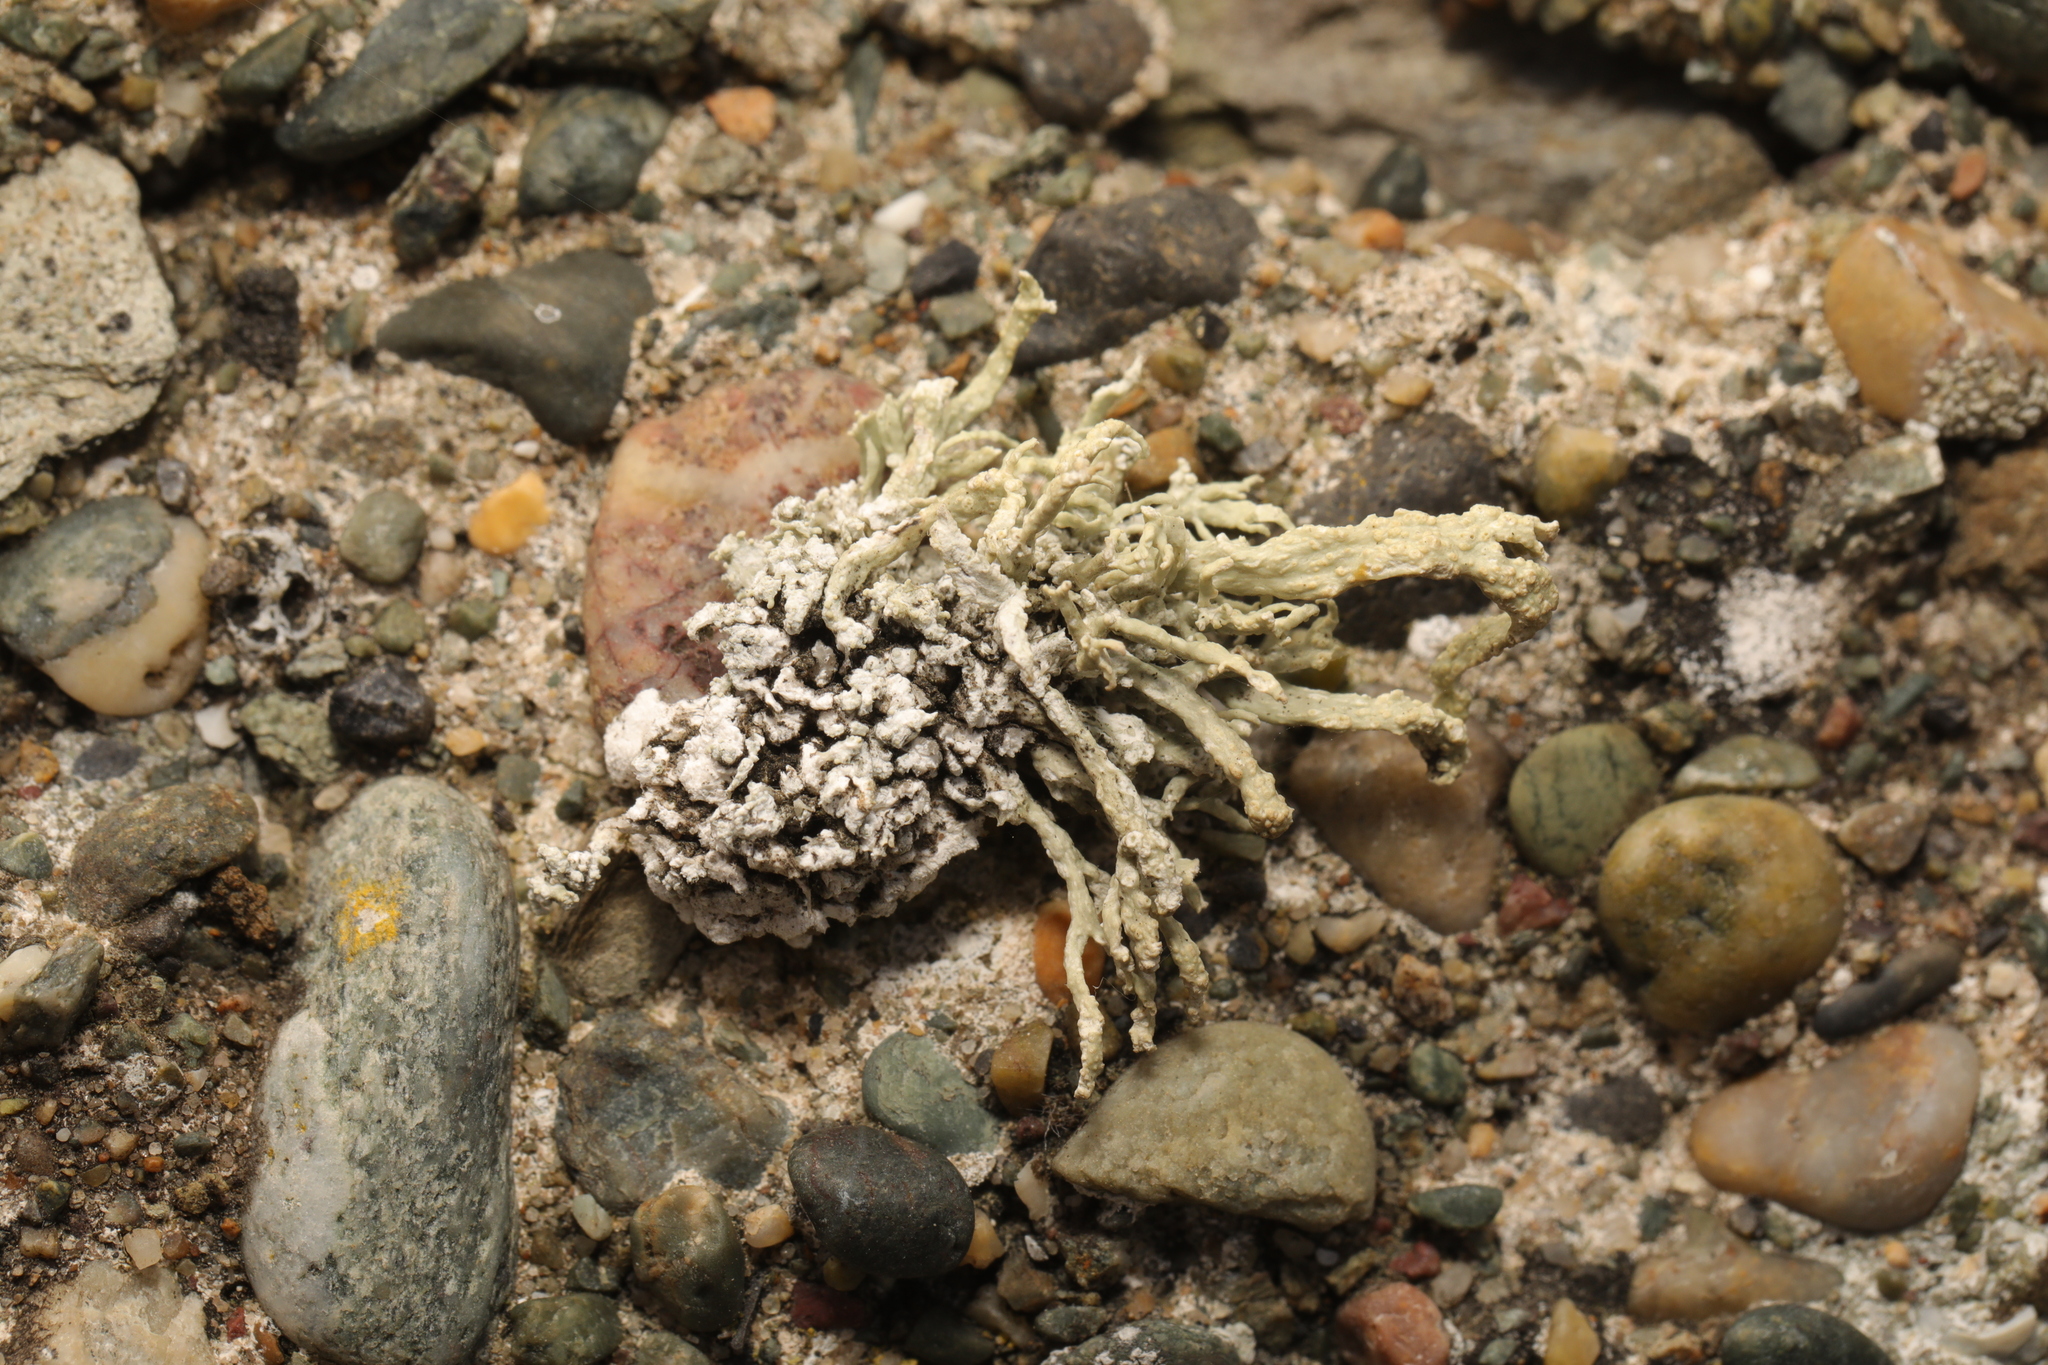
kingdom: Fungi
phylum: Ascomycota
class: Lecanoromycetes
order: Lecanorales
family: Ramalinaceae
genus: Ramalina
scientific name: Ramalina siliquosa
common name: Sea ivory
